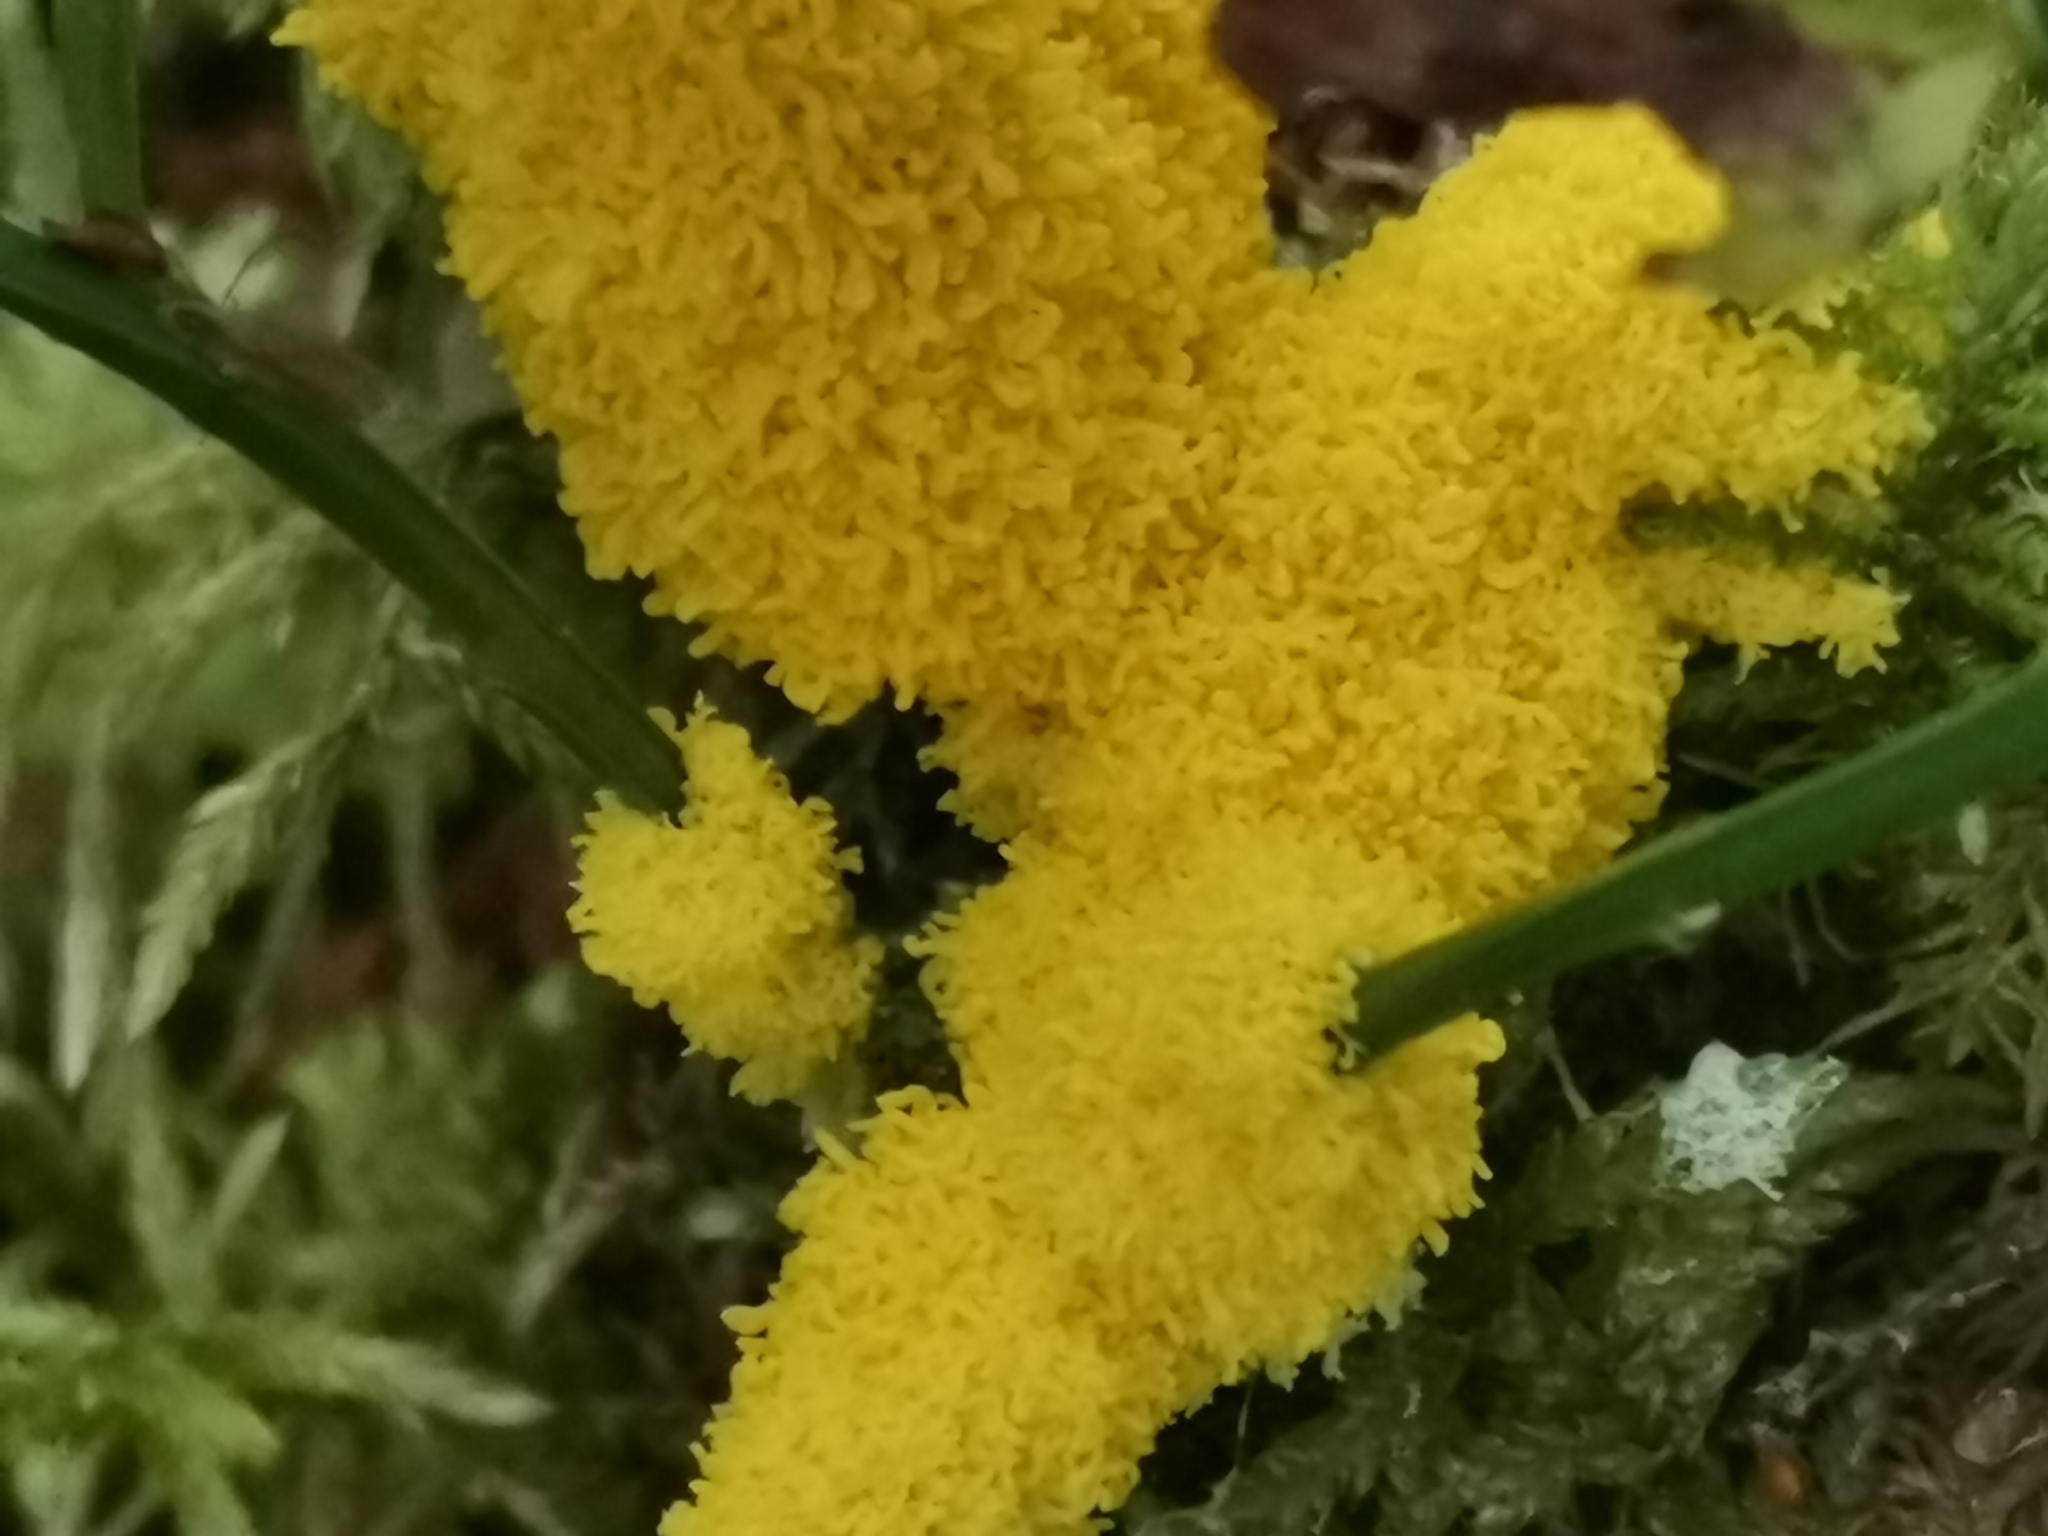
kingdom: Protozoa
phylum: Mycetozoa
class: Myxomycetes
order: Physarales
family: Physaraceae
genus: Fuligo
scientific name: Fuligo septica
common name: Dog vomit slime mold
